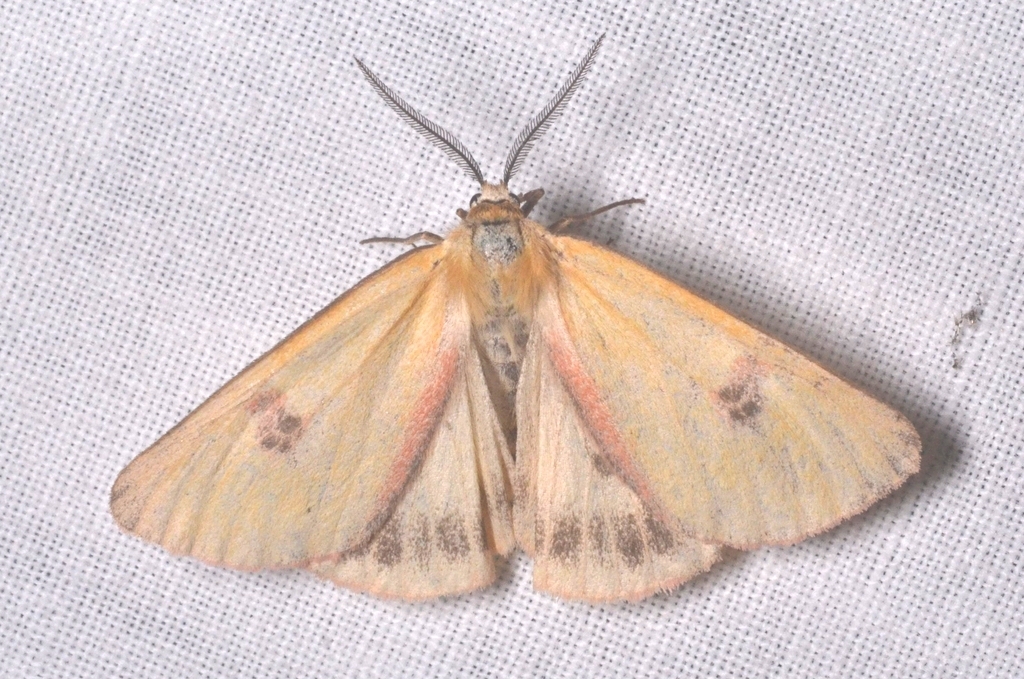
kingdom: Animalia
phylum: Arthropoda
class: Insecta
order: Lepidoptera
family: Erebidae
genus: Diacrisia
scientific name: Diacrisia sannio
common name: Clouded buff
